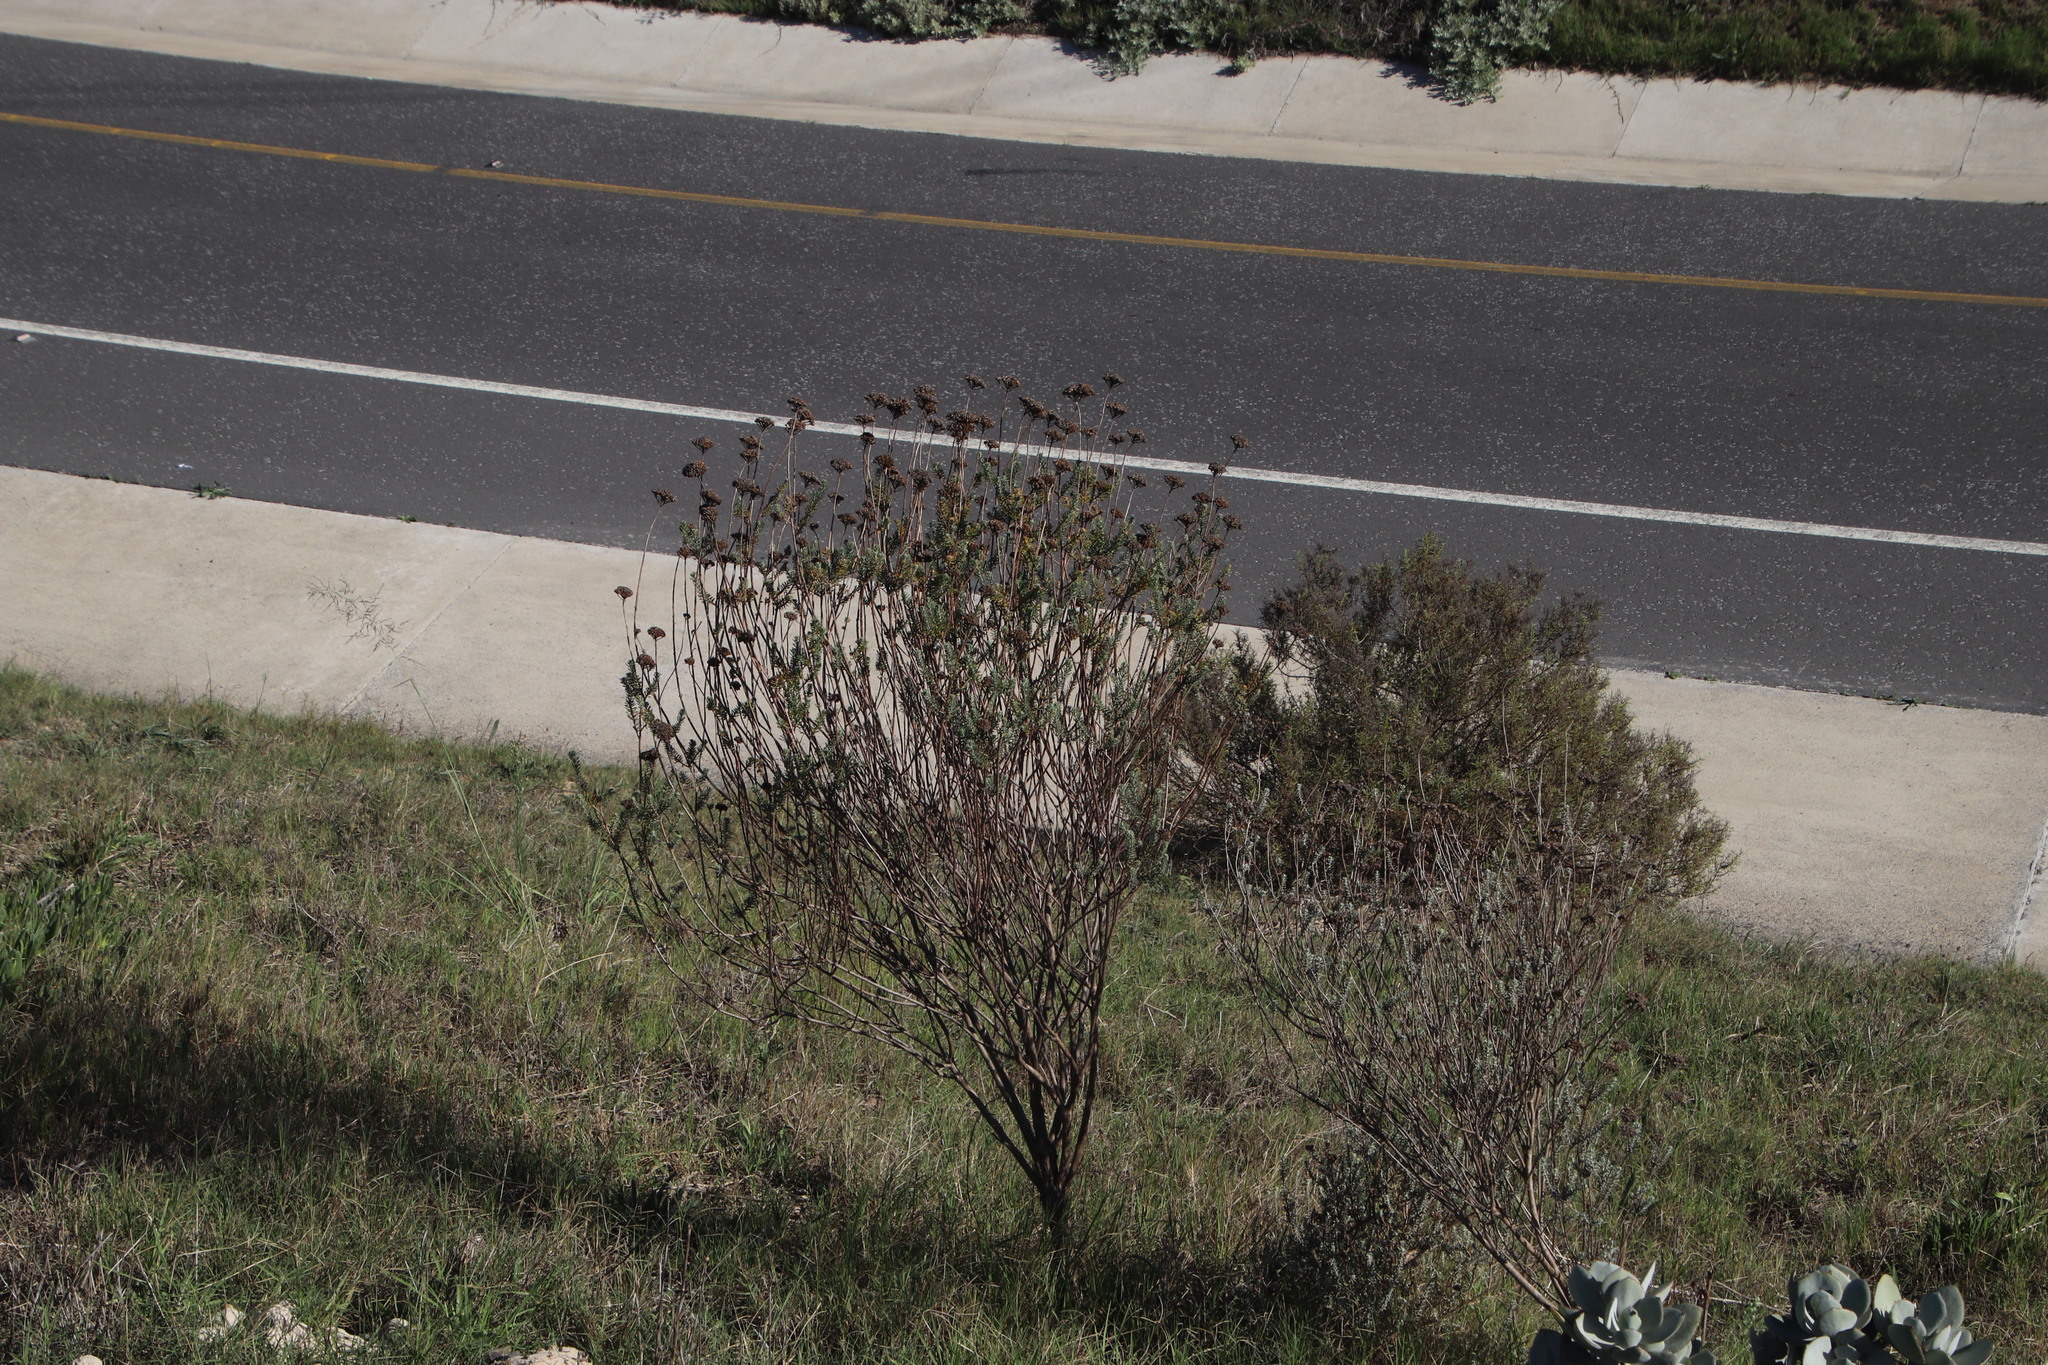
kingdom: Plantae
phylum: Tracheophyta
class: Magnoliopsida
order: Asterales
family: Asteraceae
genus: Athanasia
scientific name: Athanasia trifurcata
